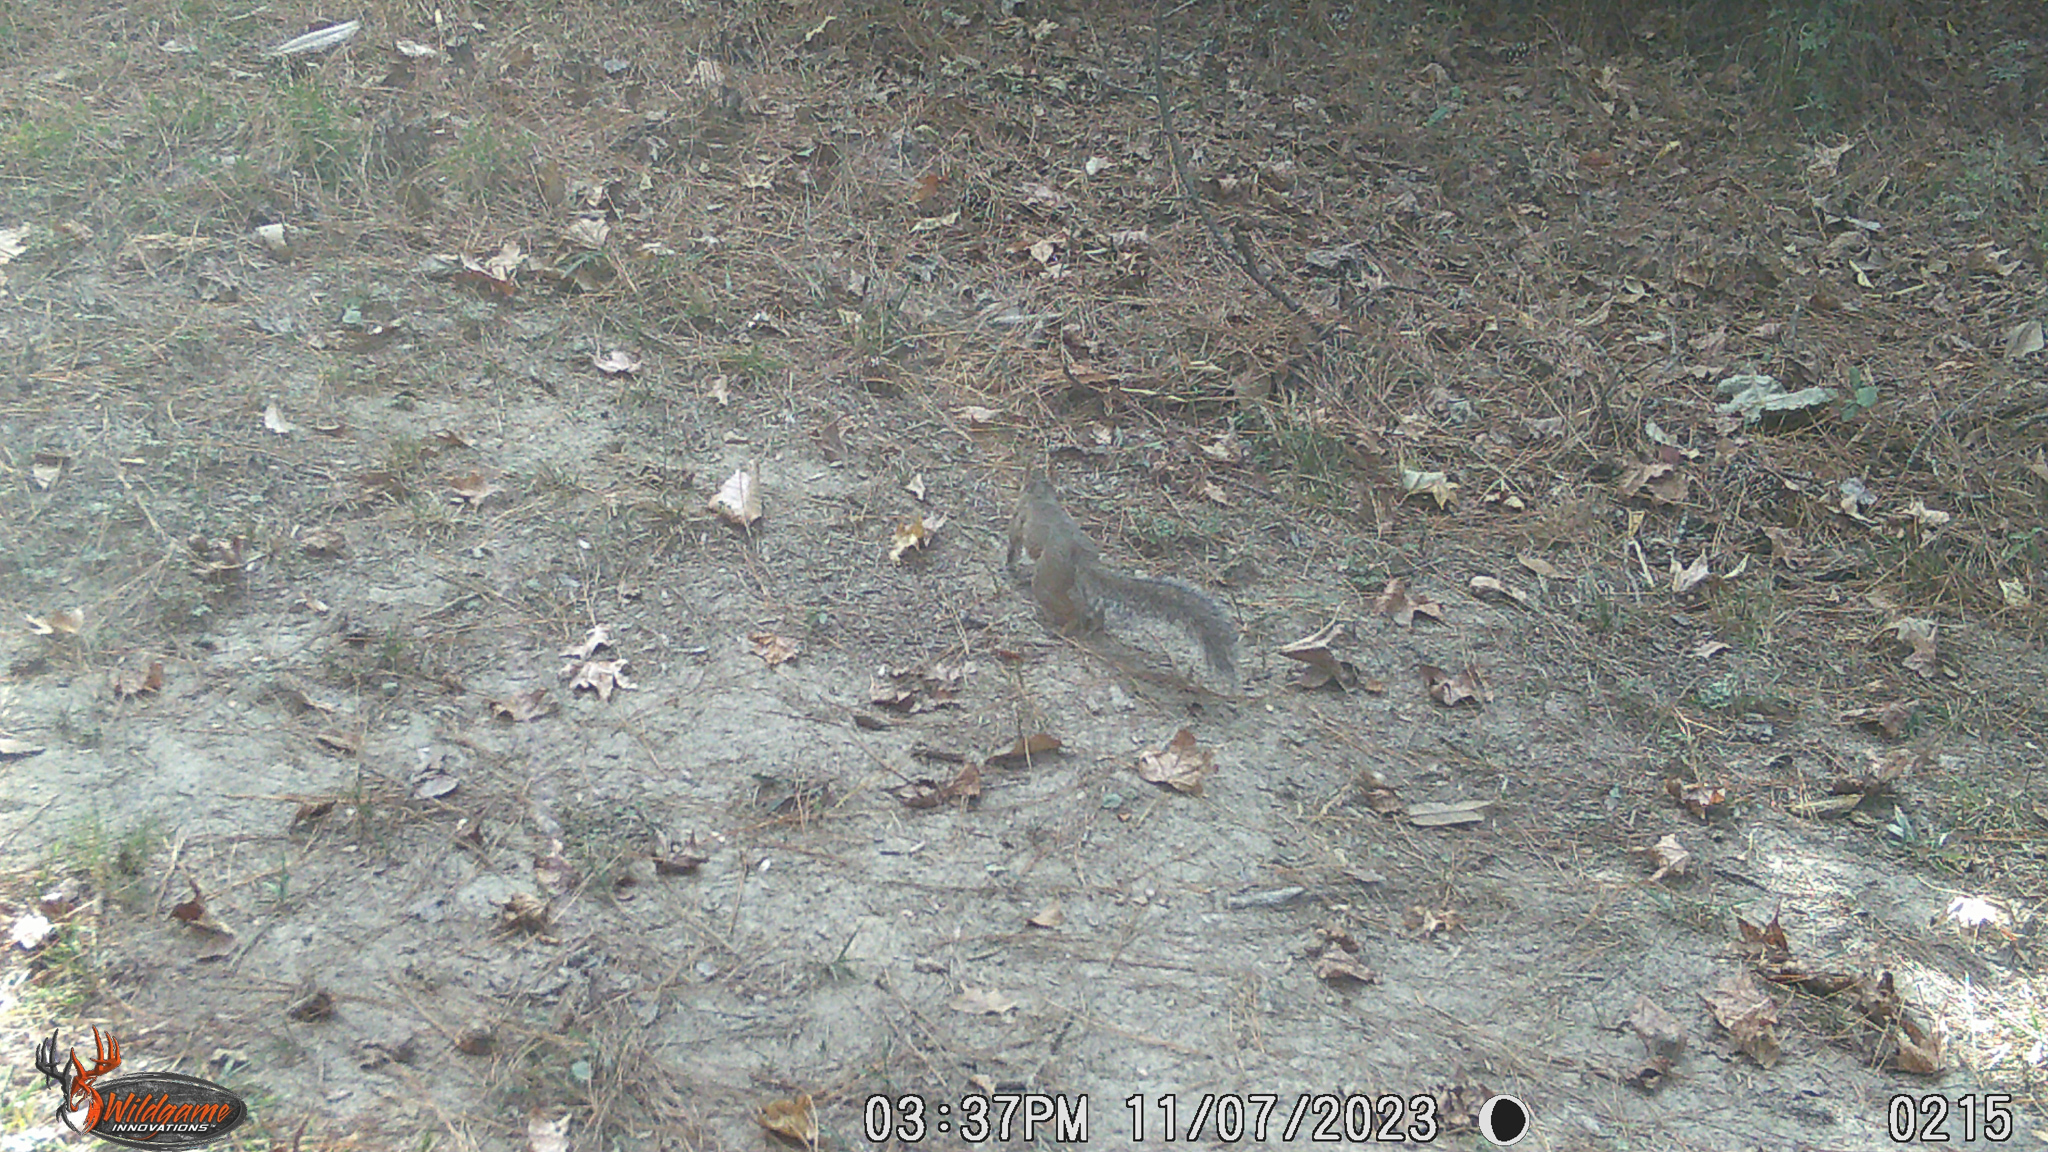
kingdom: Animalia
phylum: Chordata
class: Mammalia
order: Rodentia
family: Sciuridae
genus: Sciurus
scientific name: Sciurus carolinensis
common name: Eastern gray squirrel
